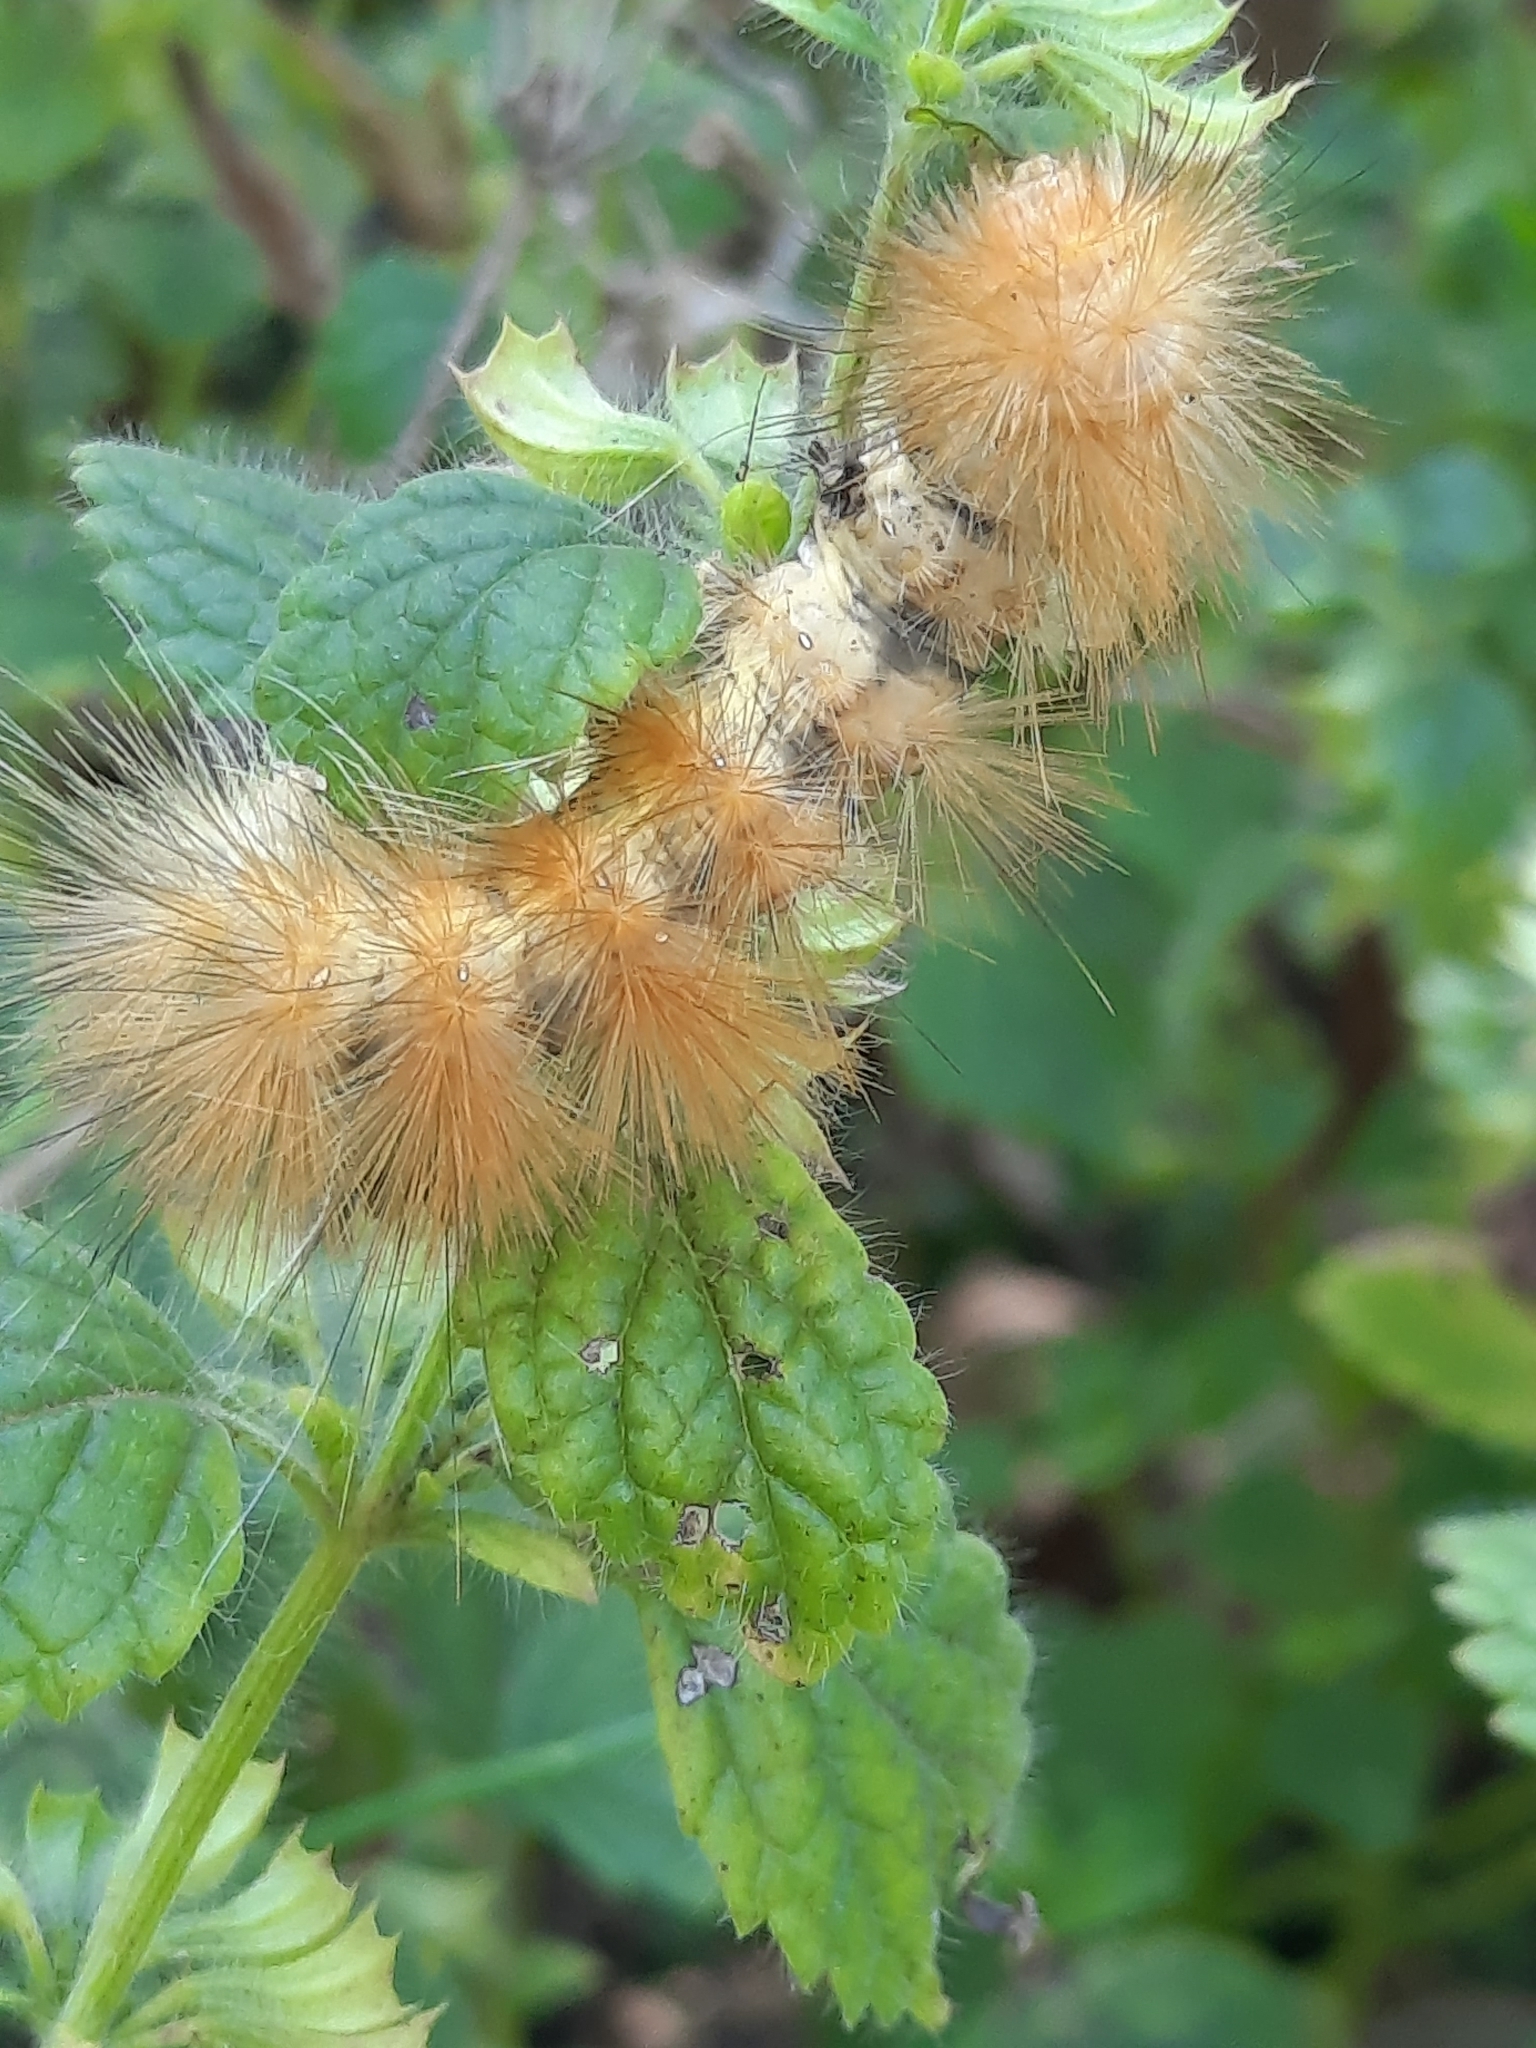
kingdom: Animalia
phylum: Arthropoda
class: Insecta
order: Lepidoptera
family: Erebidae
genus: Spilosoma
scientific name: Spilosoma virginica
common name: Virginia tiger moth
